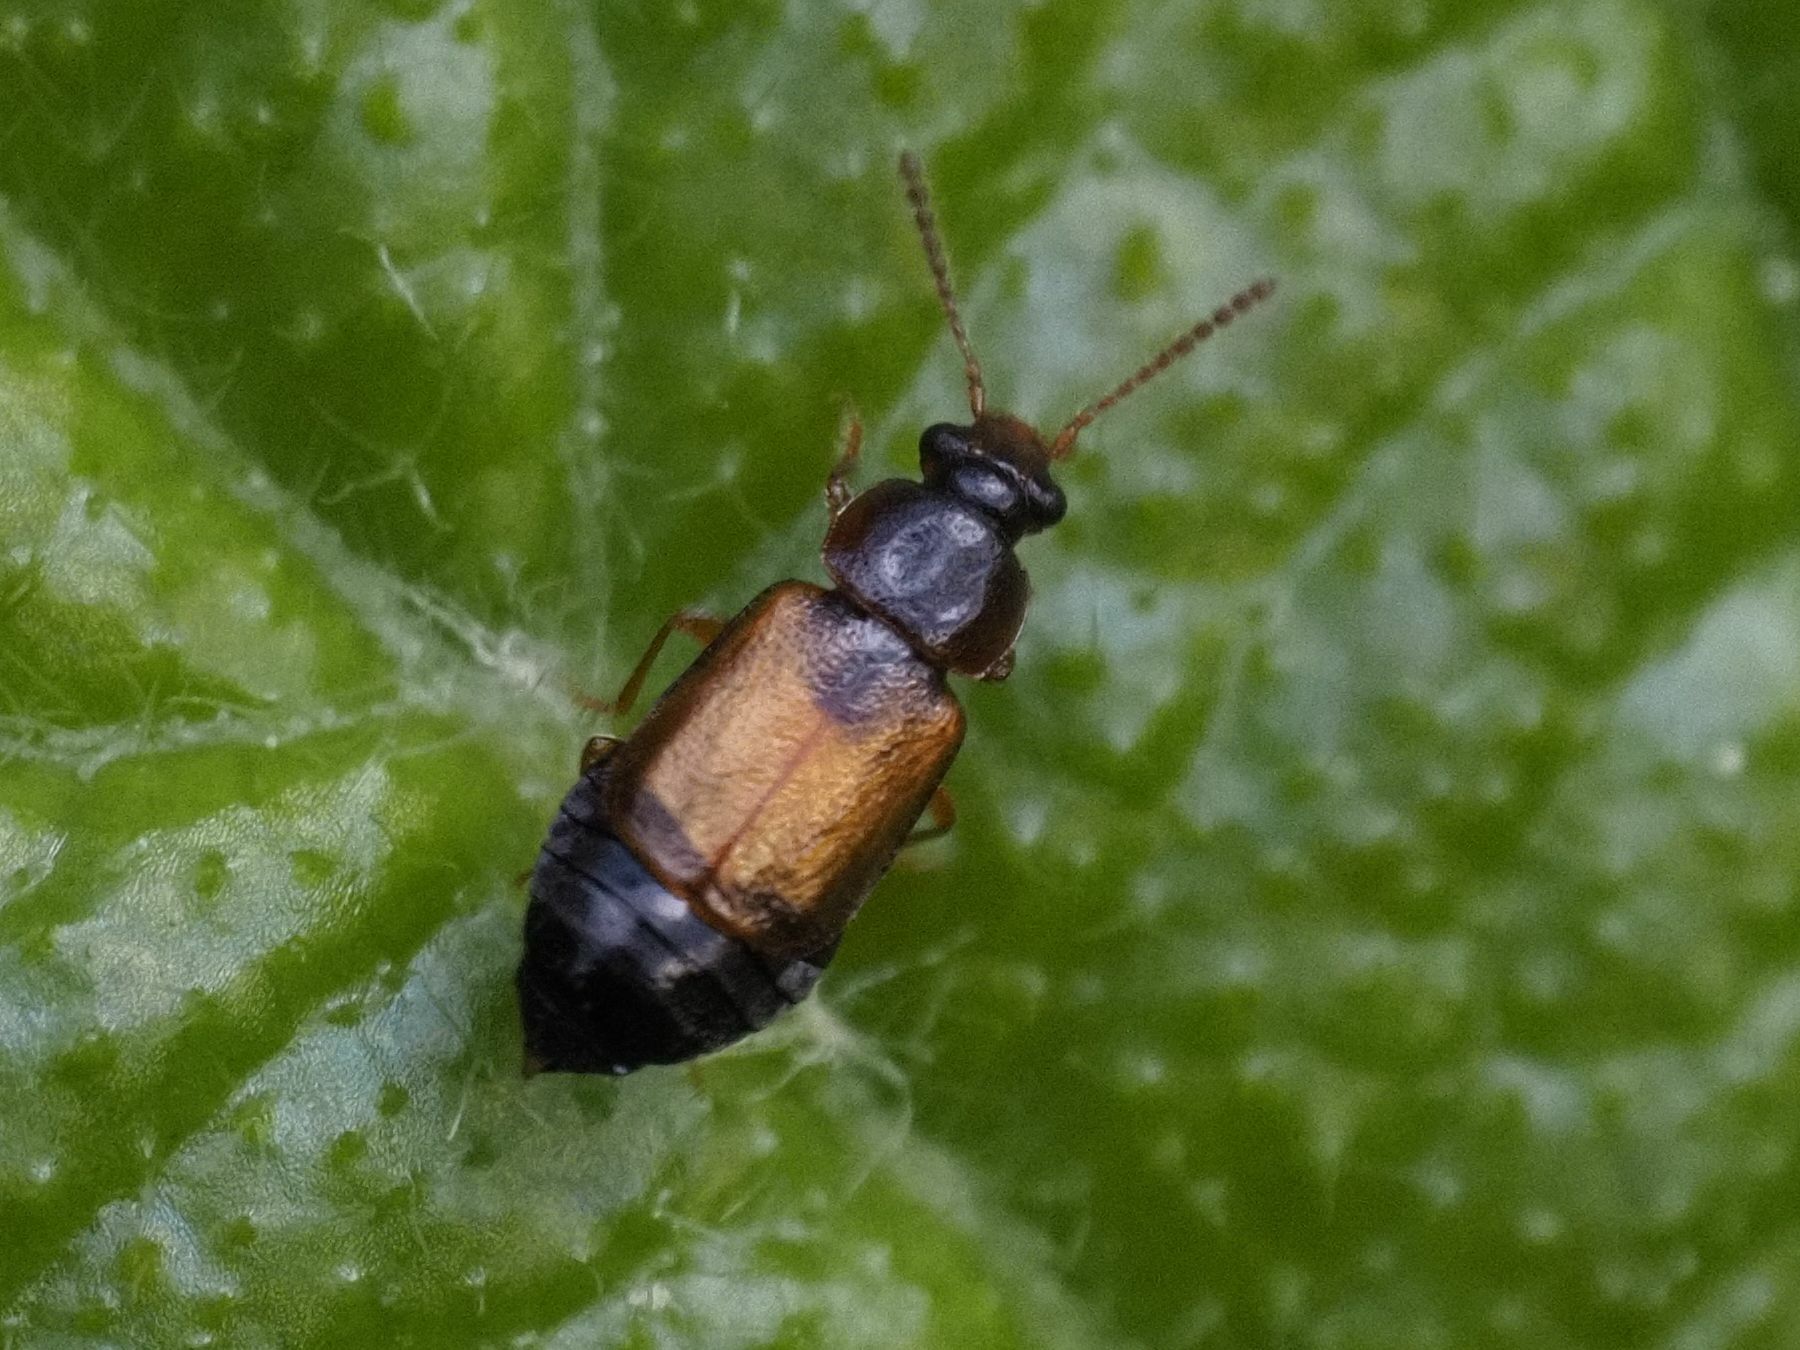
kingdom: Animalia
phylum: Arthropoda
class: Insecta
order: Coleoptera
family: Staphylinidae
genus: Eusphalerum
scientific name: Eusphalerum semicoleoptratum
